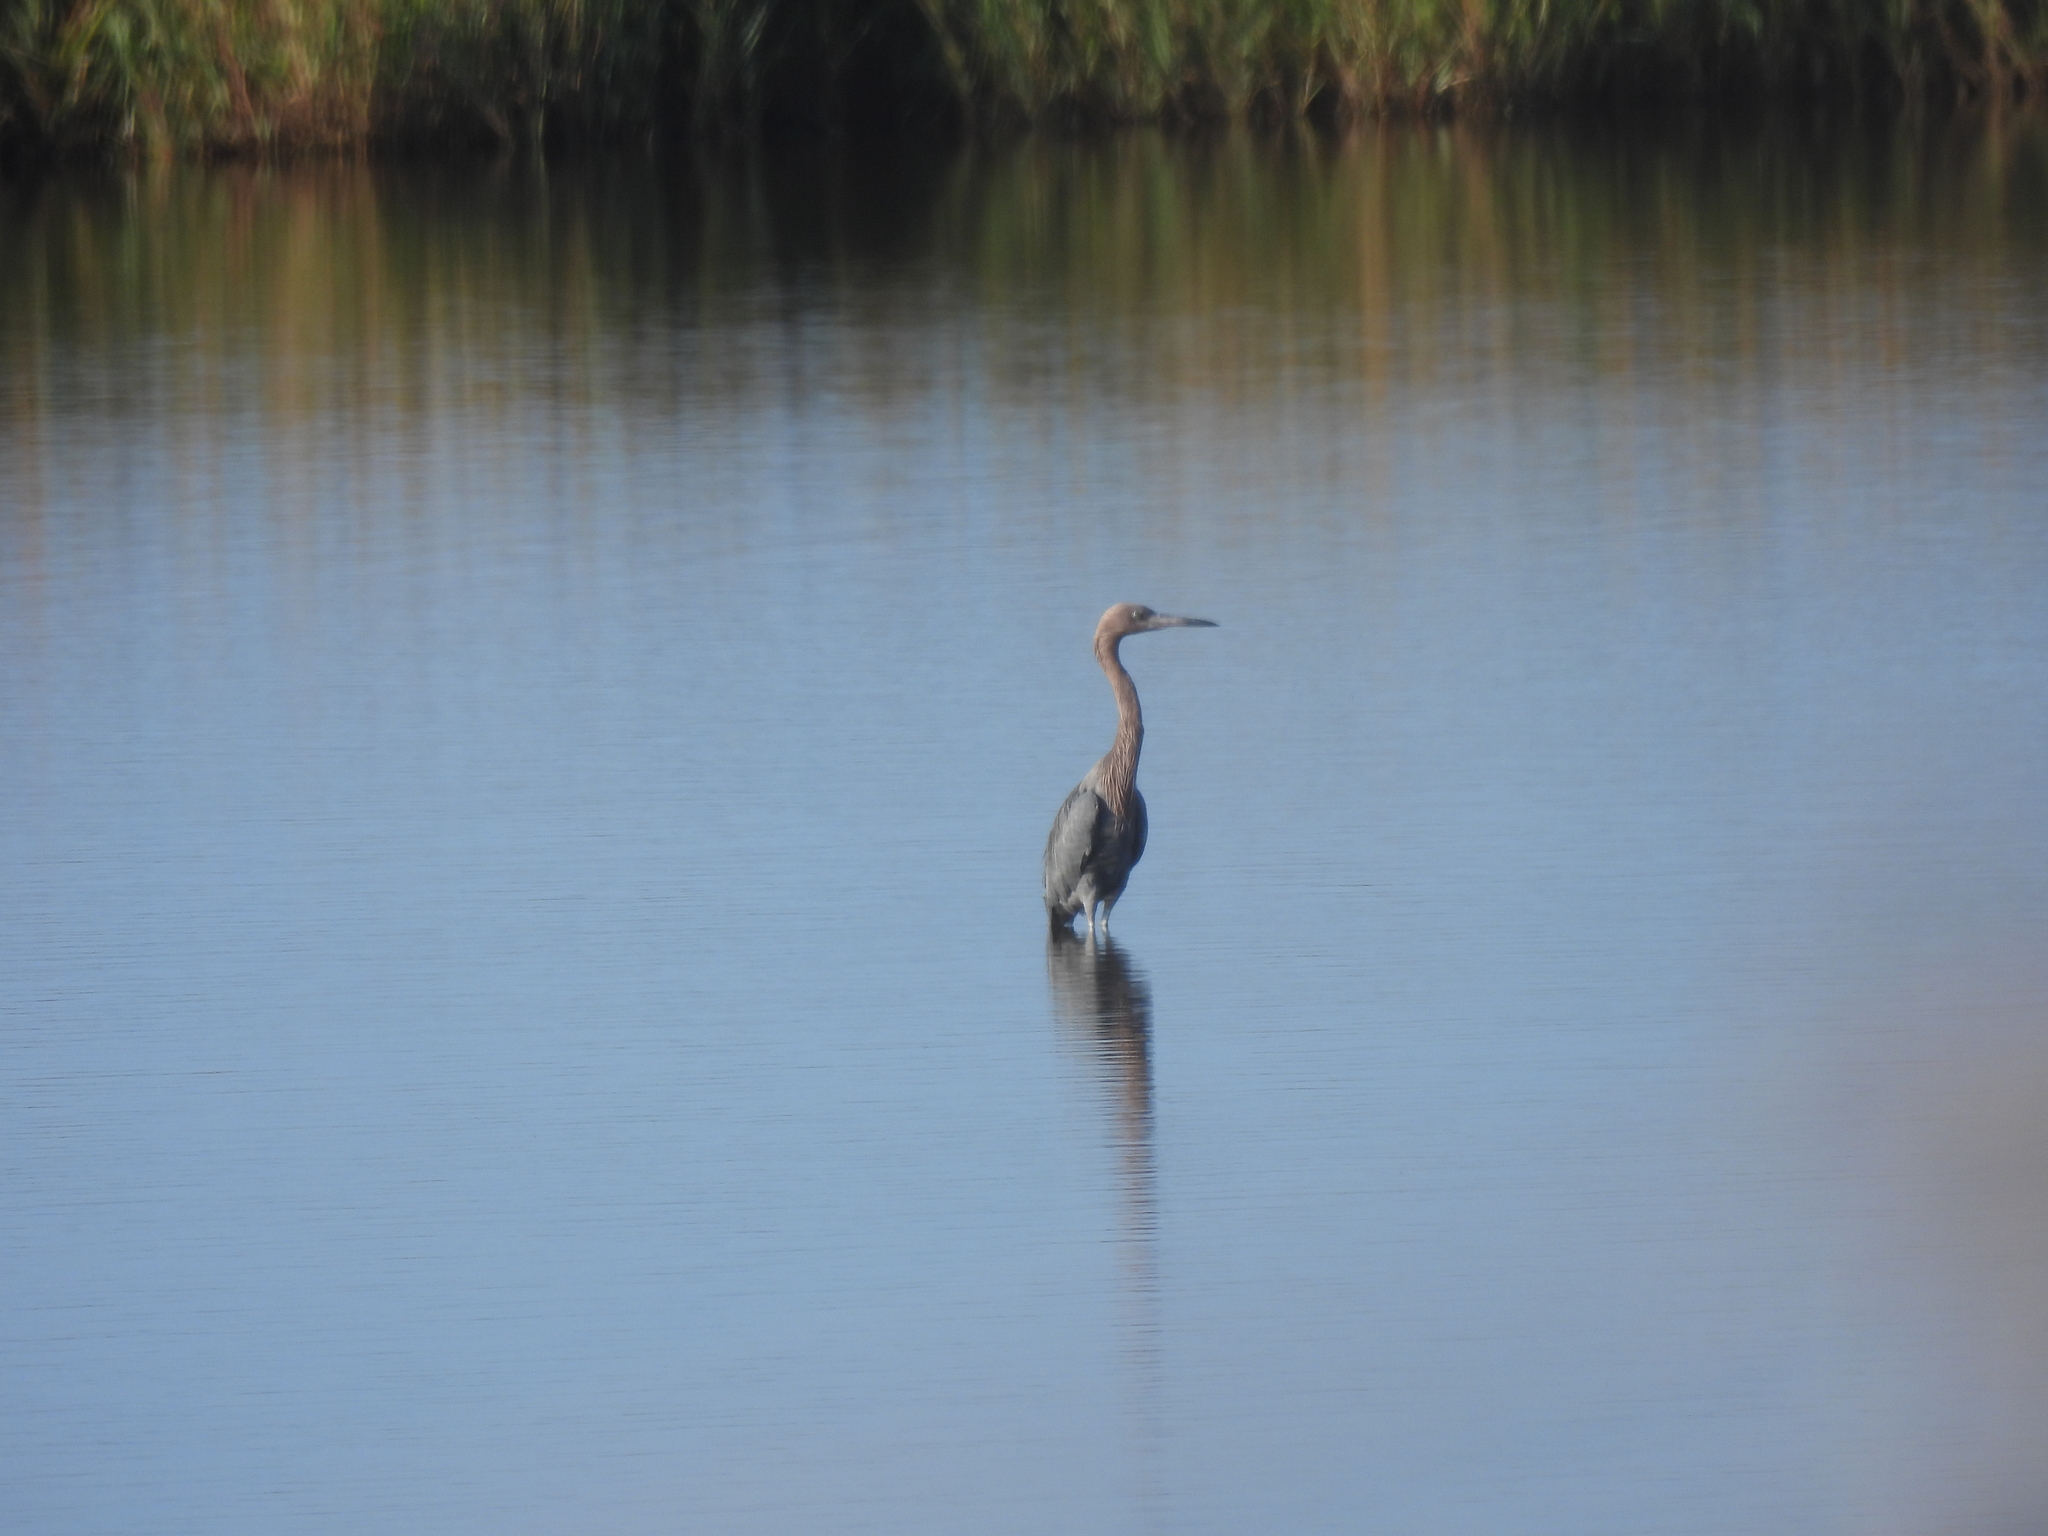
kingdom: Animalia
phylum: Chordata
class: Aves
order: Pelecaniformes
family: Ardeidae
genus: Egretta
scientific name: Egretta rufescens
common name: Reddish egret
